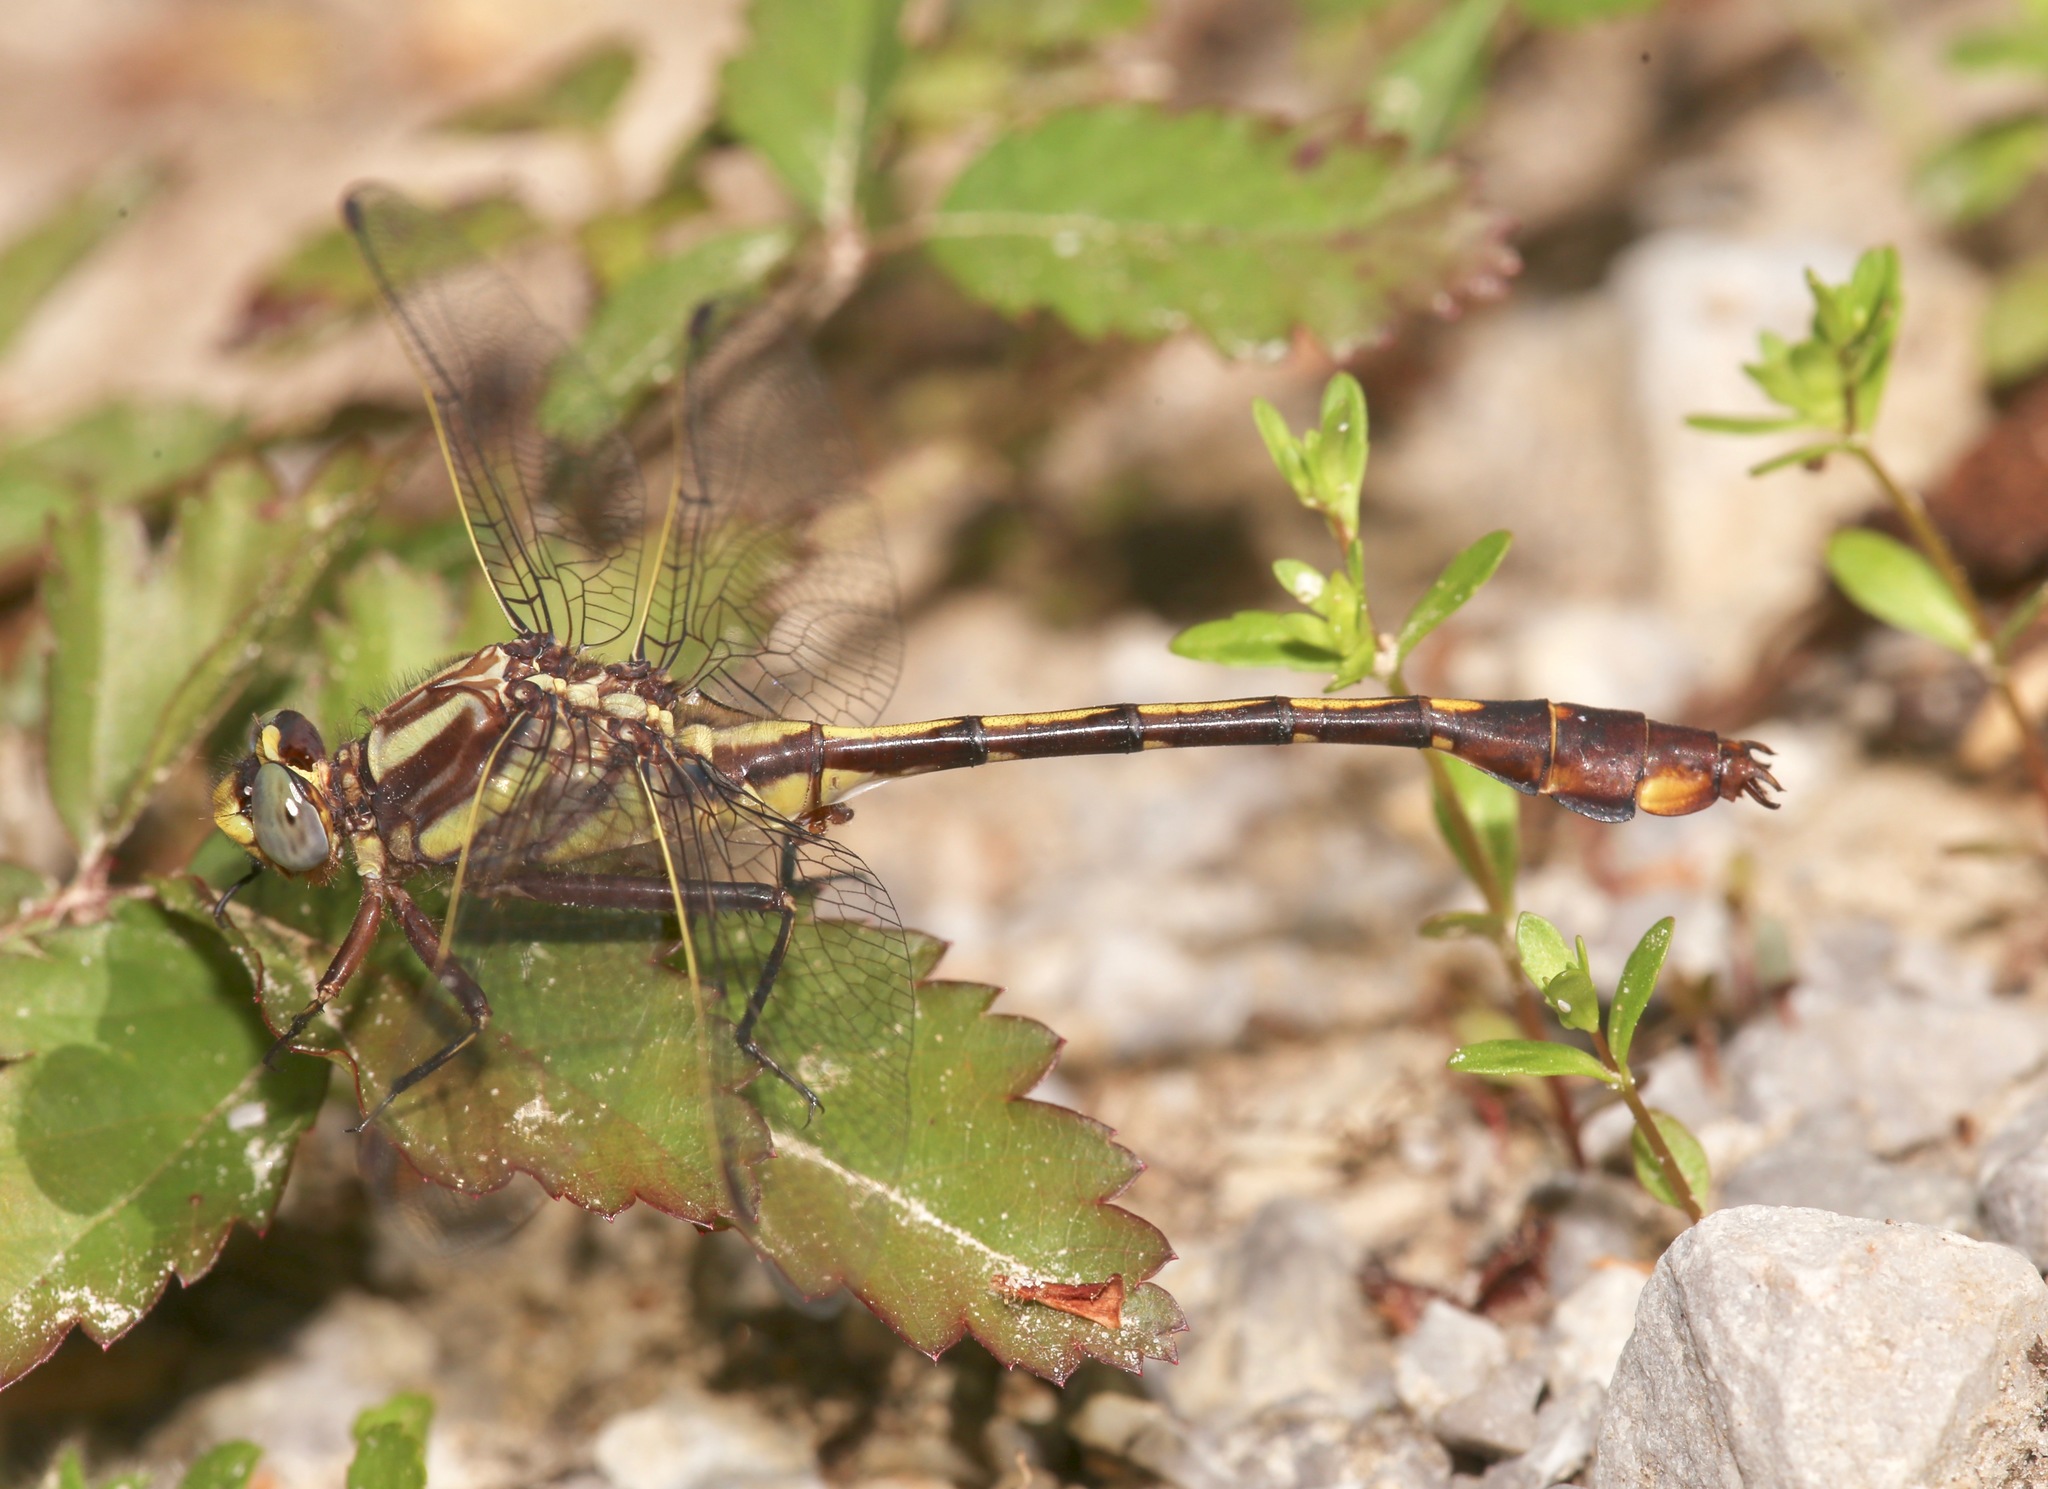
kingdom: Animalia
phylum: Arthropoda
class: Insecta
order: Odonata
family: Gomphidae
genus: Gomphurus
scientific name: Gomphurus hybridus
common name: Cocoa clubtail
